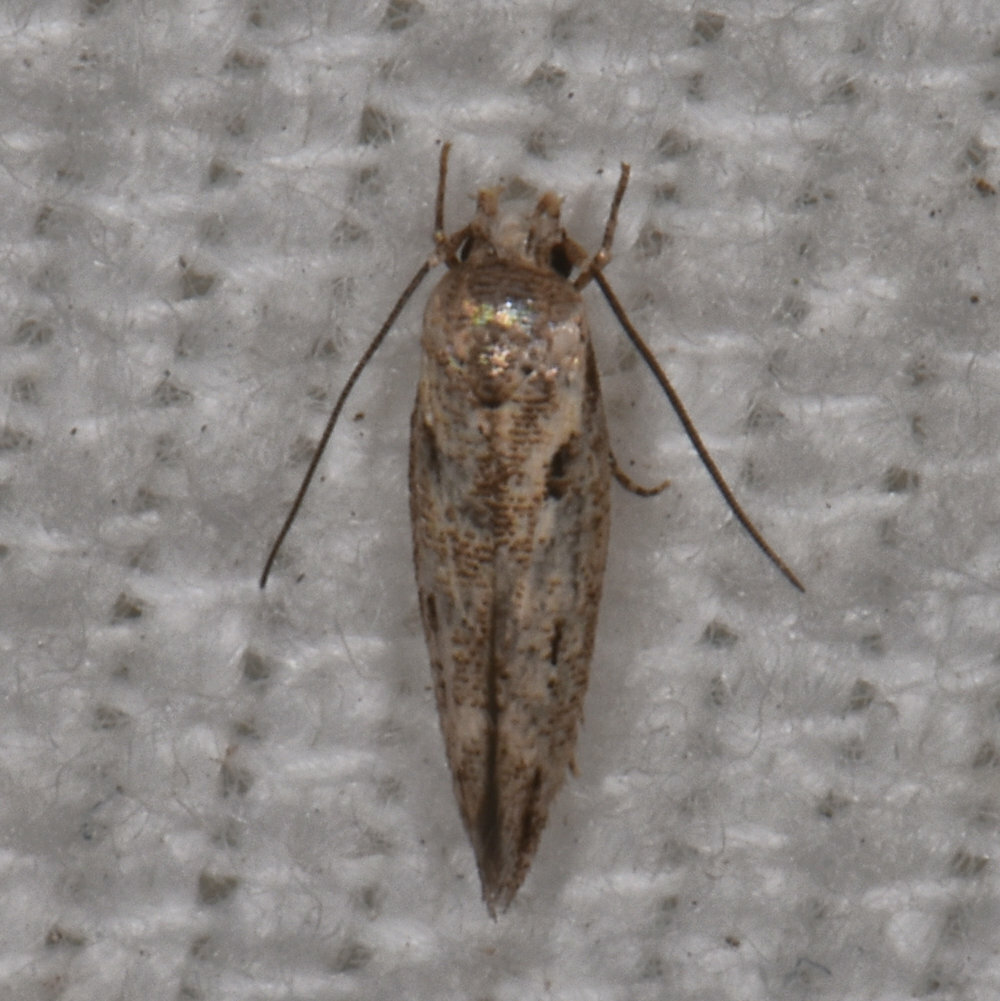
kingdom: Animalia
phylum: Arthropoda
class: Insecta
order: Lepidoptera
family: Momphidae
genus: Mompha
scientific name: Mompha brevivittella
